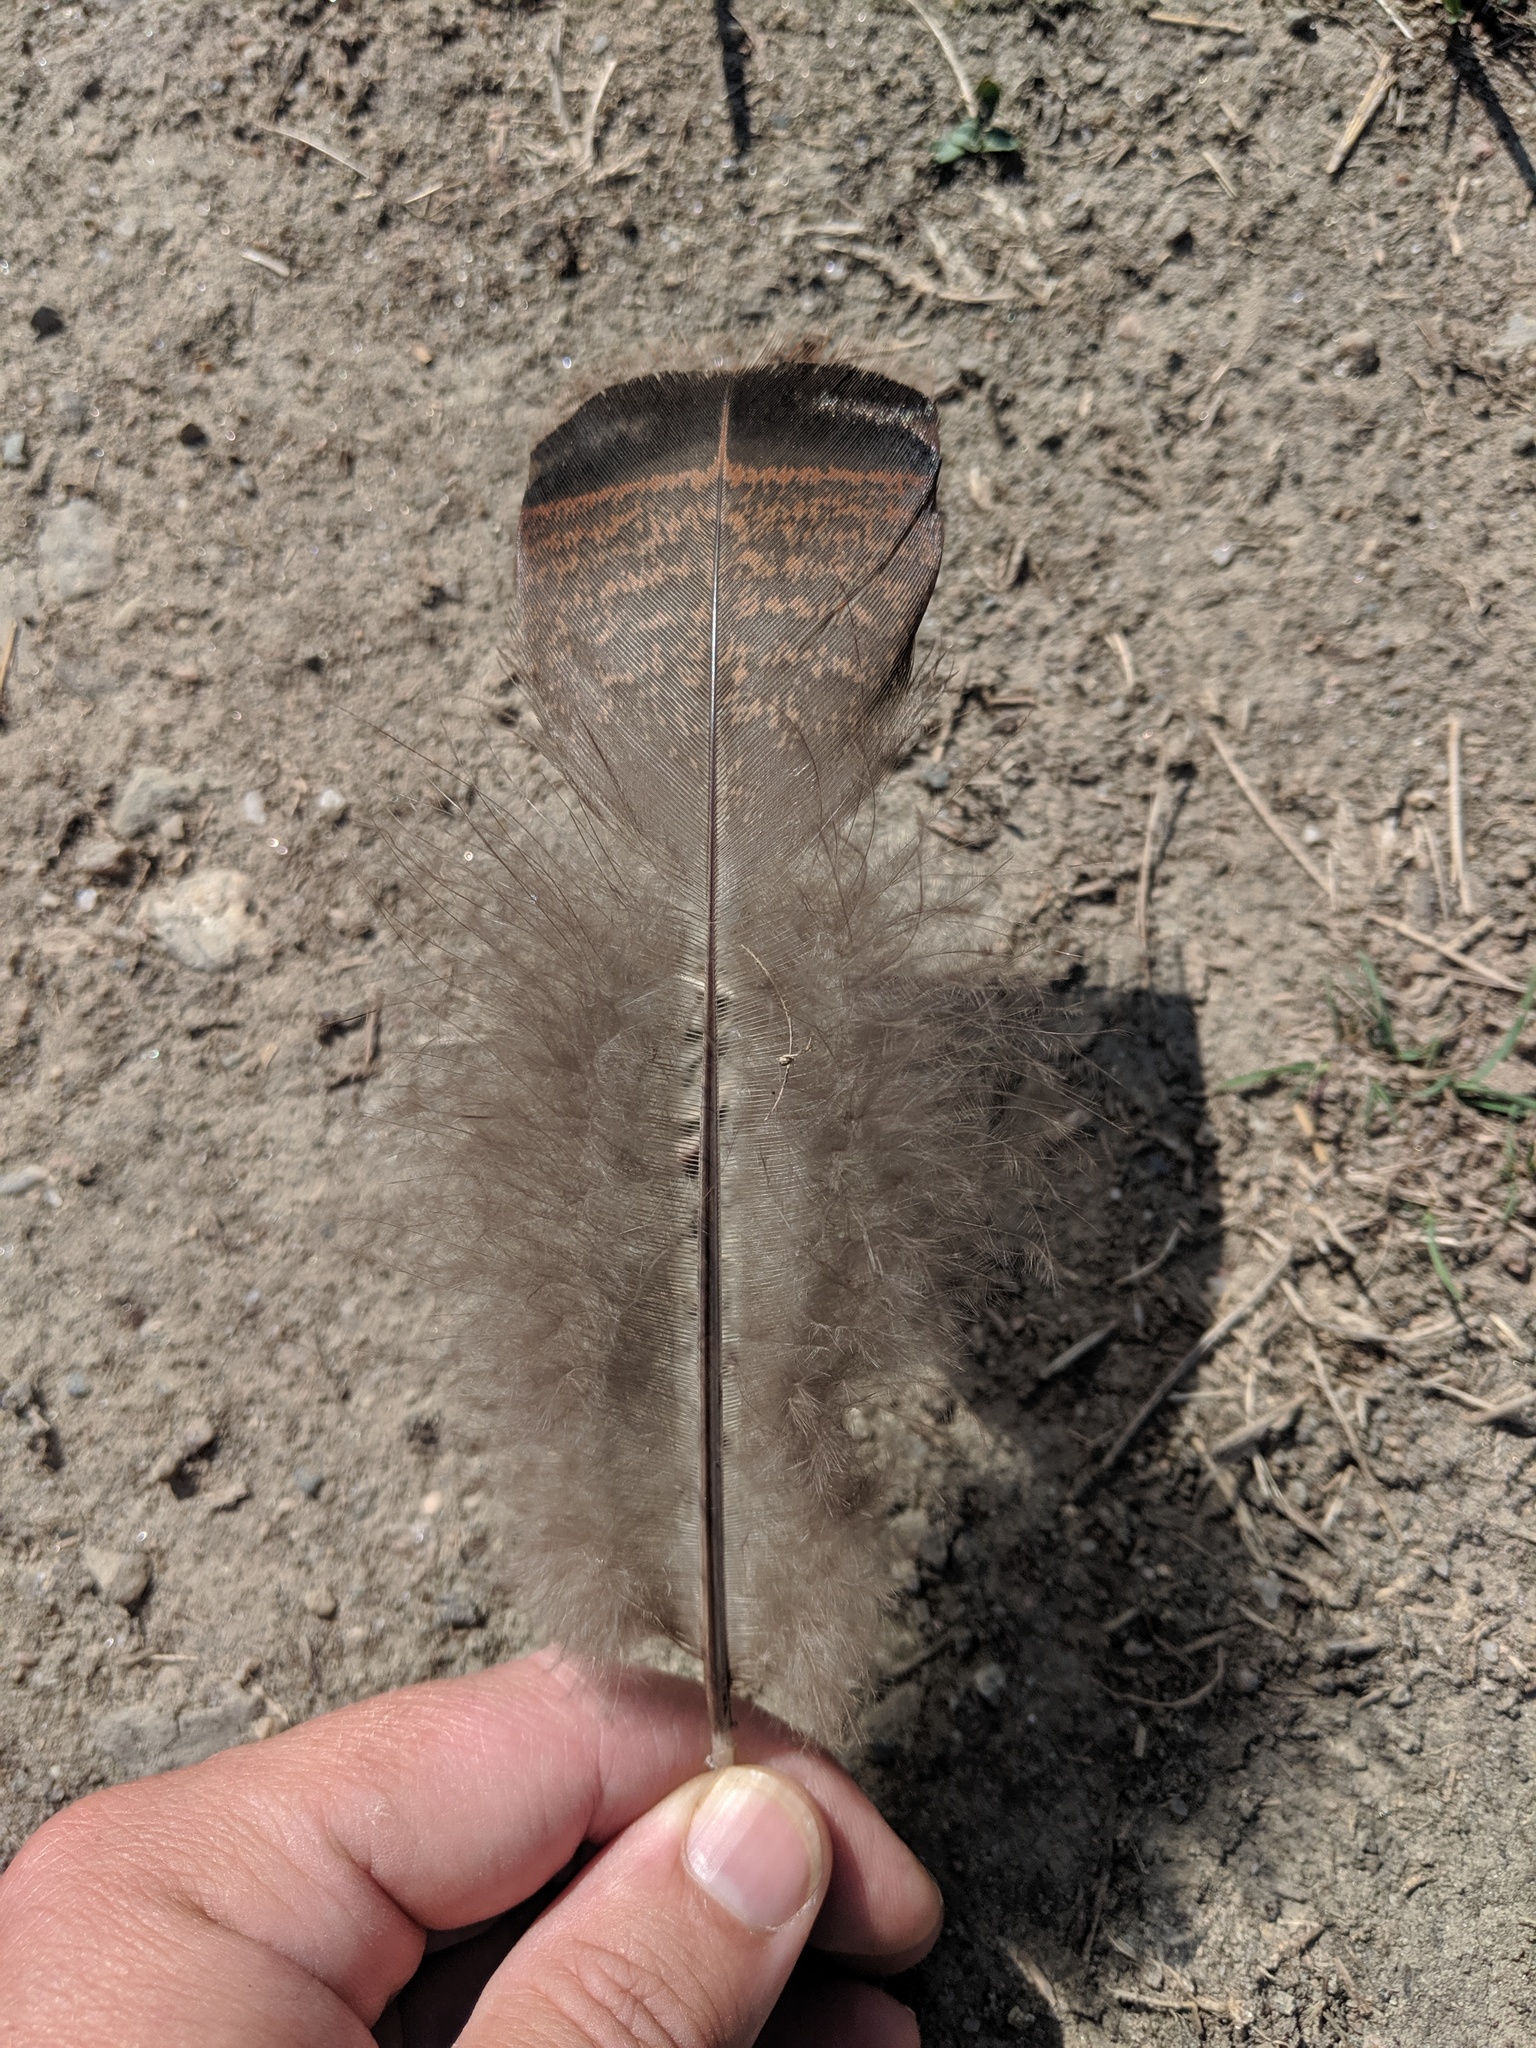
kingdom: Animalia
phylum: Chordata
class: Aves
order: Galliformes
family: Phasianidae
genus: Meleagris
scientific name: Meleagris gallopavo
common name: Wild turkey
